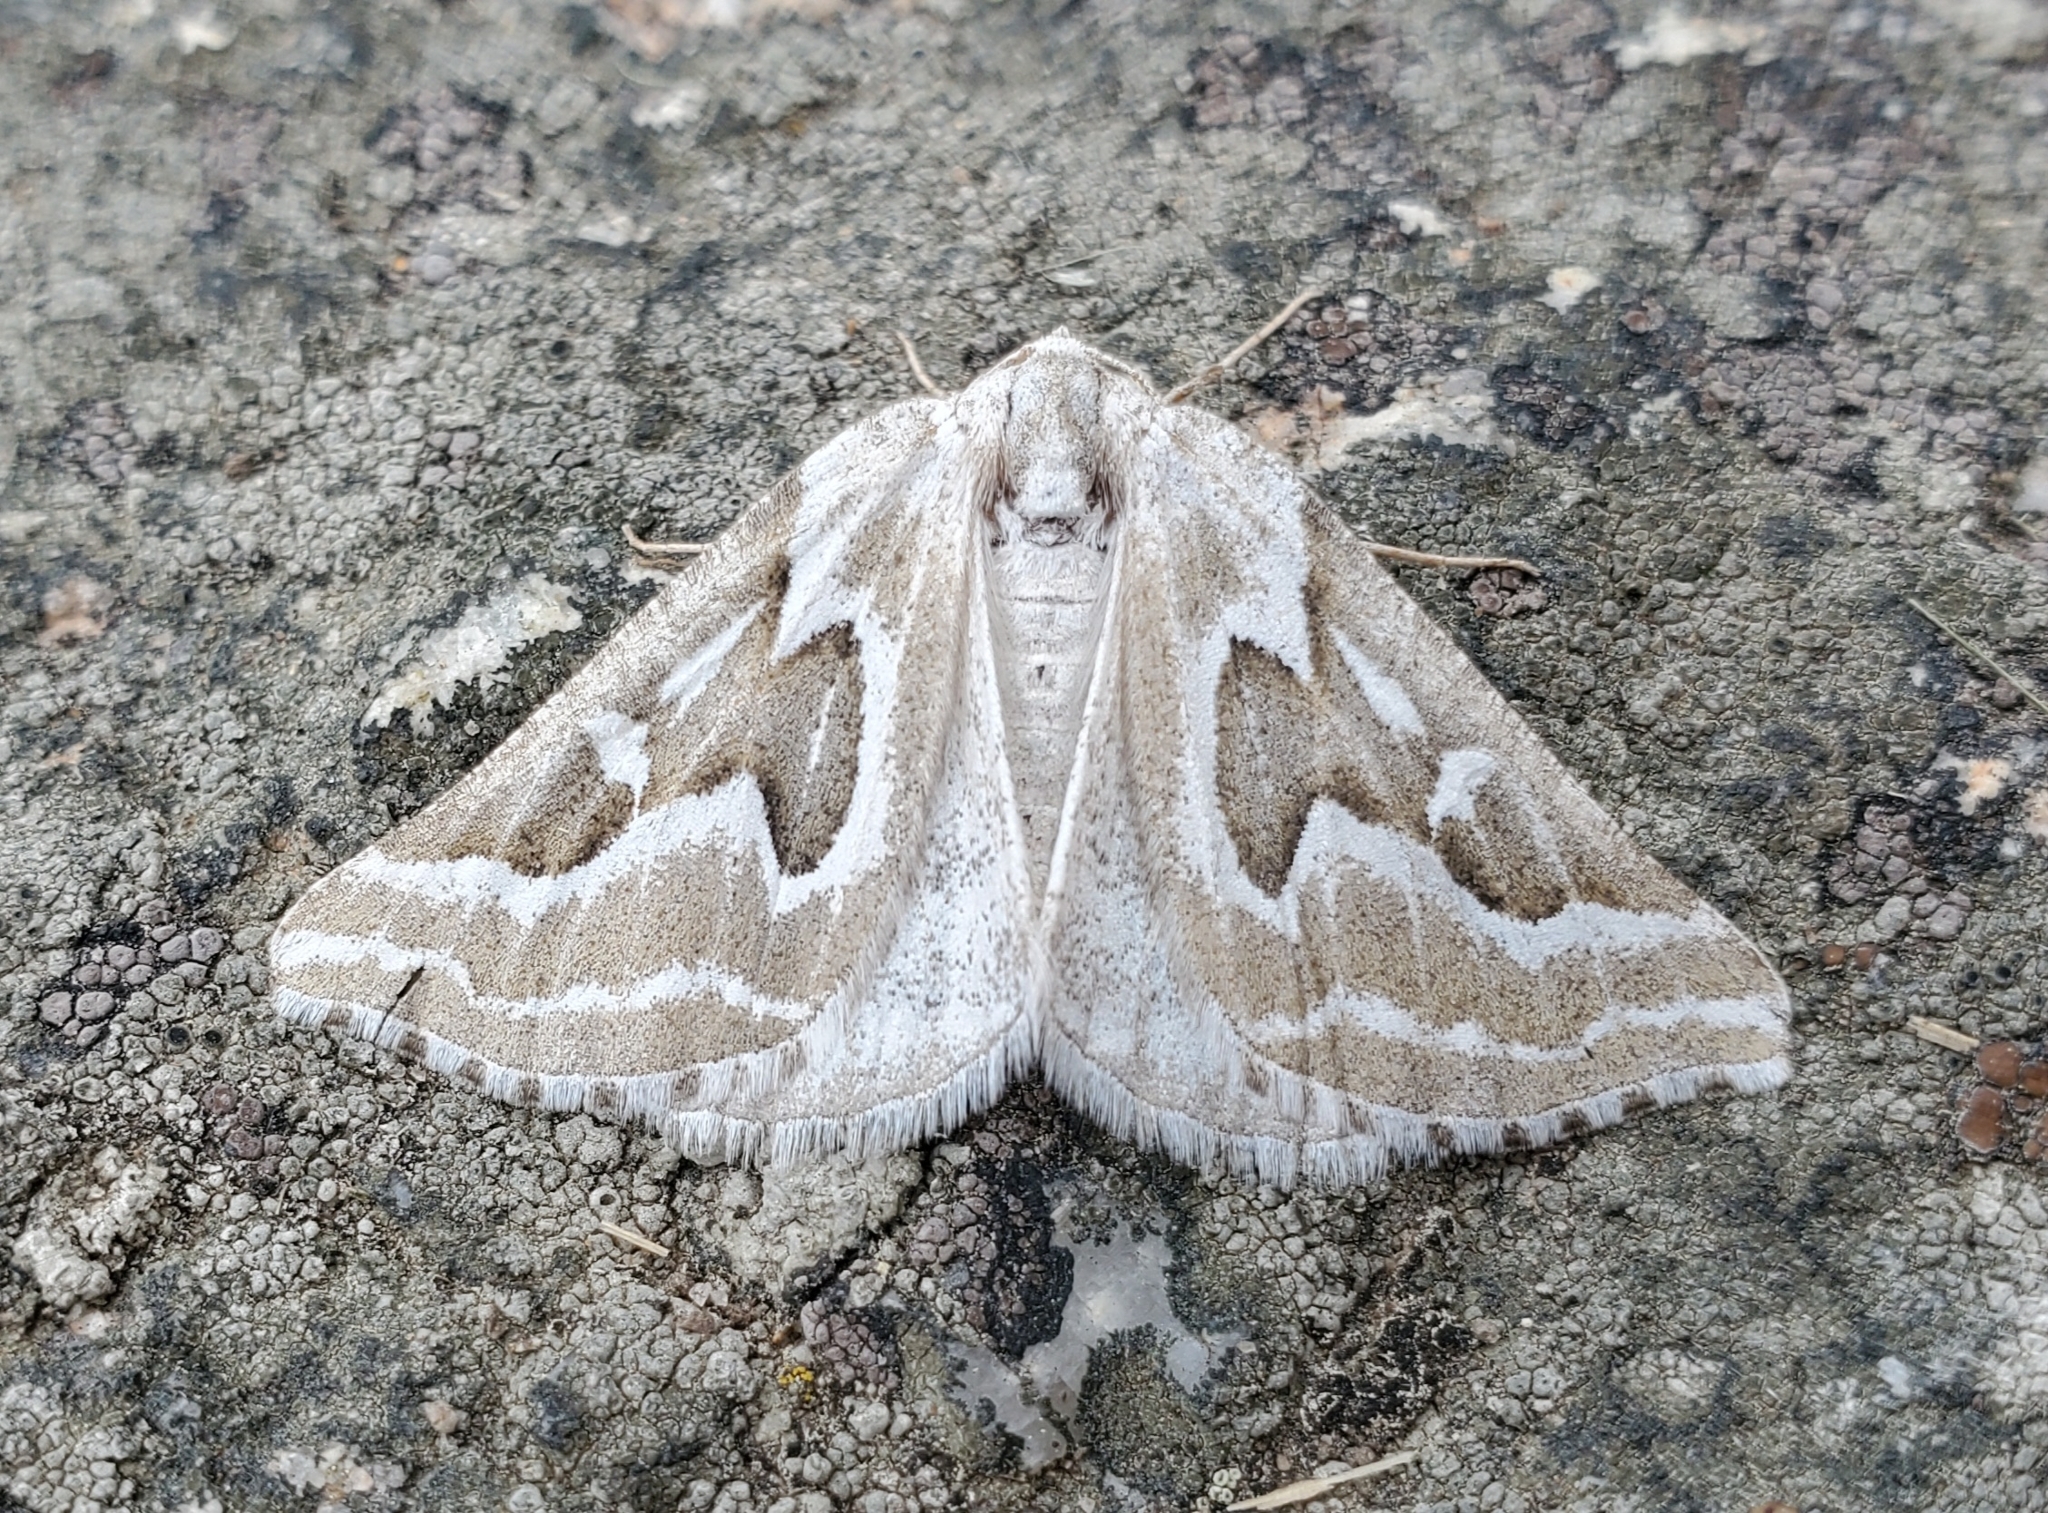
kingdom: Animalia
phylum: Arthropoda
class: Insecta
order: Lepidoptera
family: Geometridae
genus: Plataea
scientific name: Plataea trilinearia
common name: Sagebrush girdle moth
